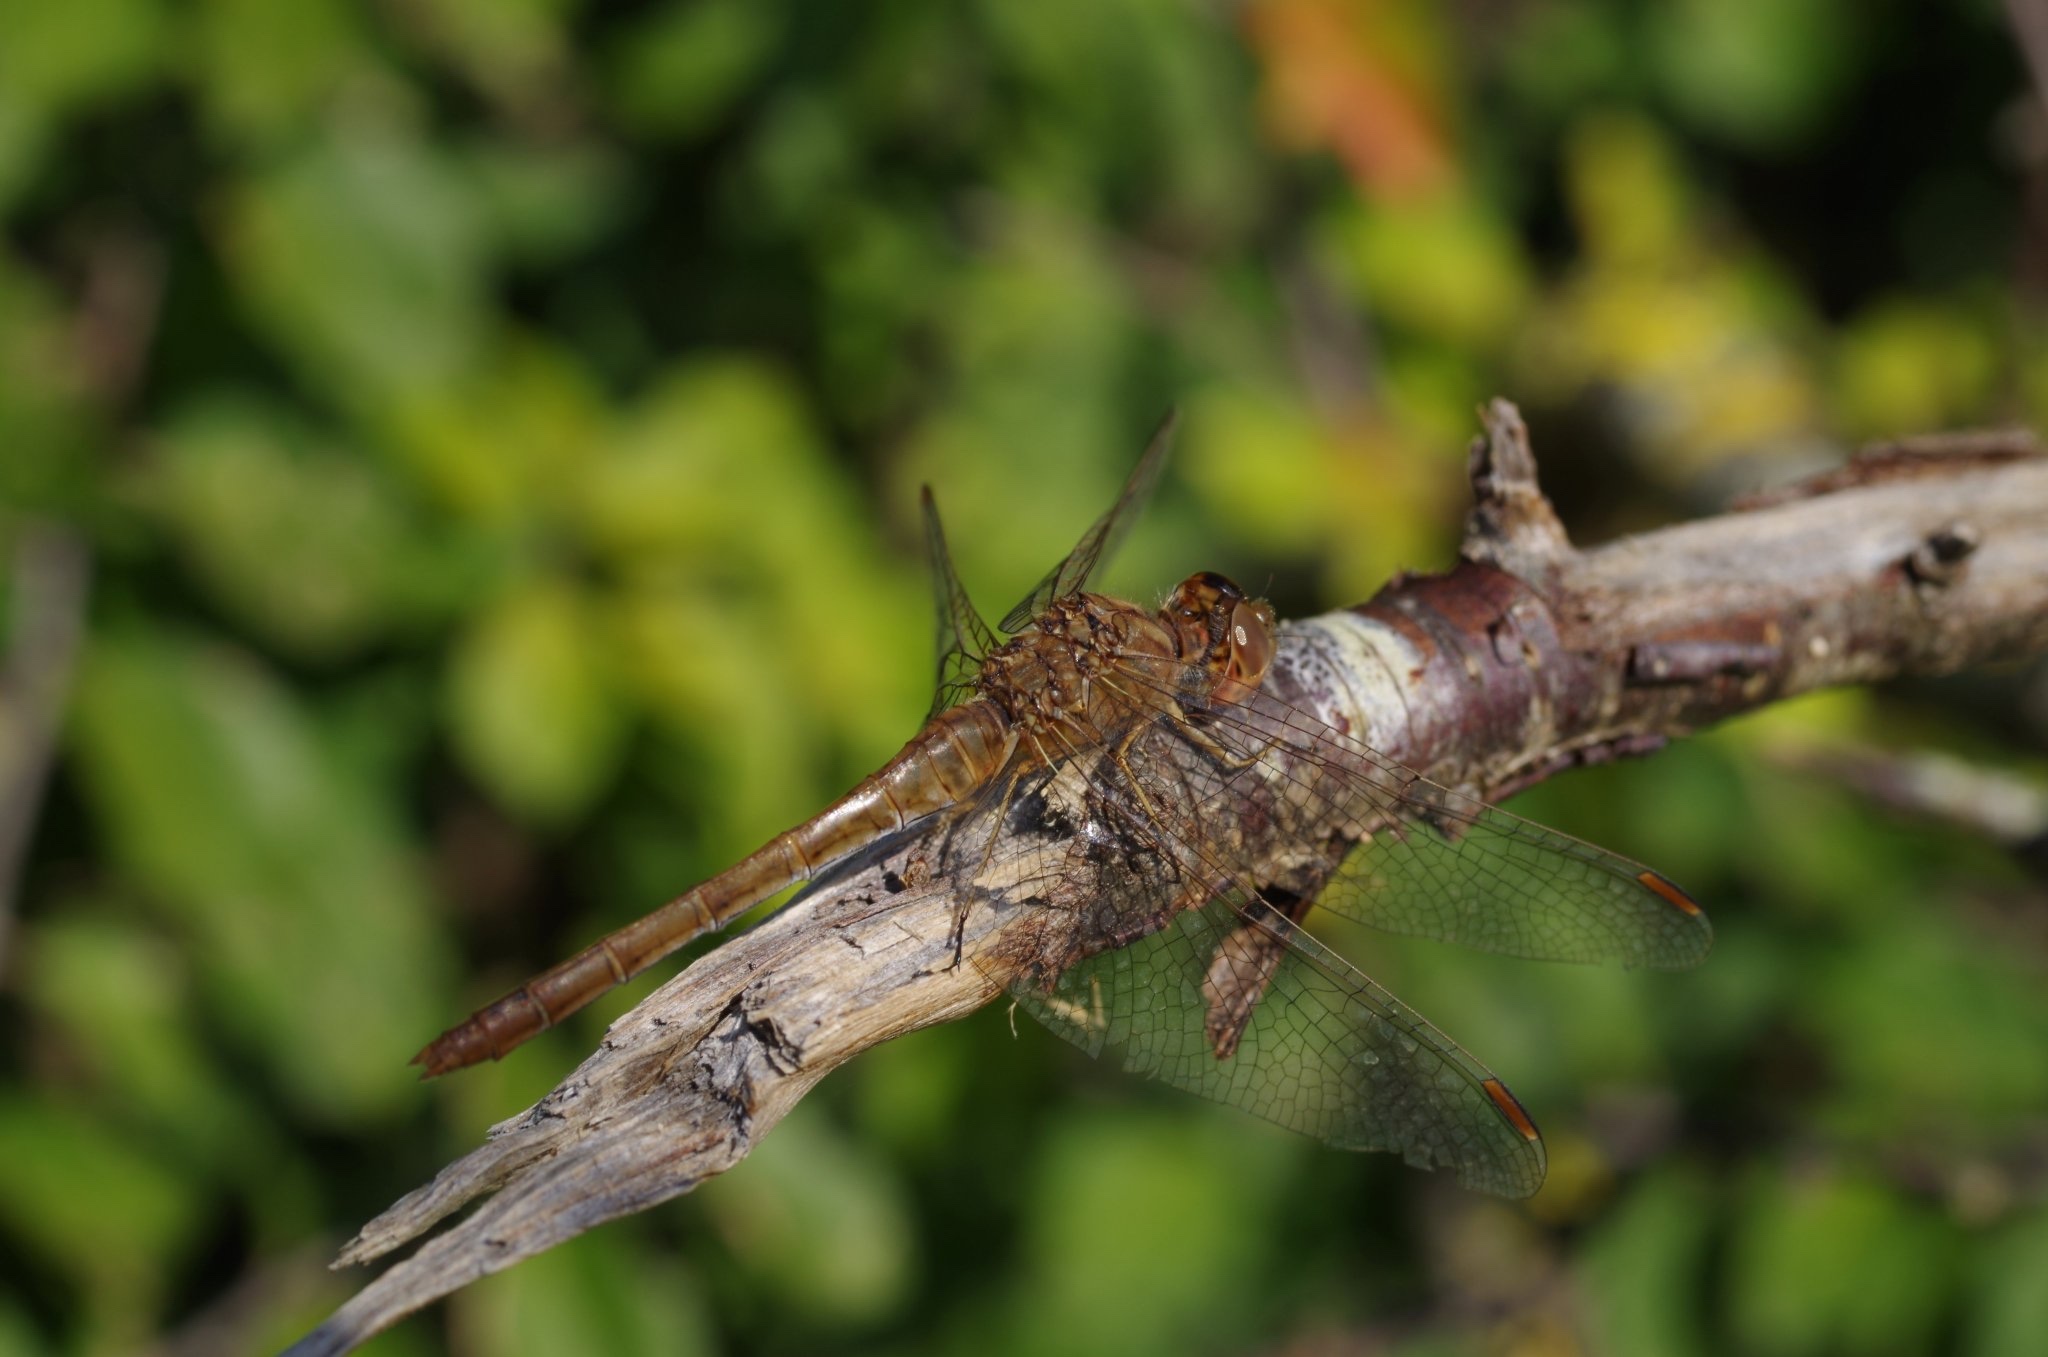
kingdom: Animalia
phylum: Arthropoda
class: Insecta
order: Odonata
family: Libellulidae
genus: Sympetrum
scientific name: Sympetrum meridionale
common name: Southern darter
